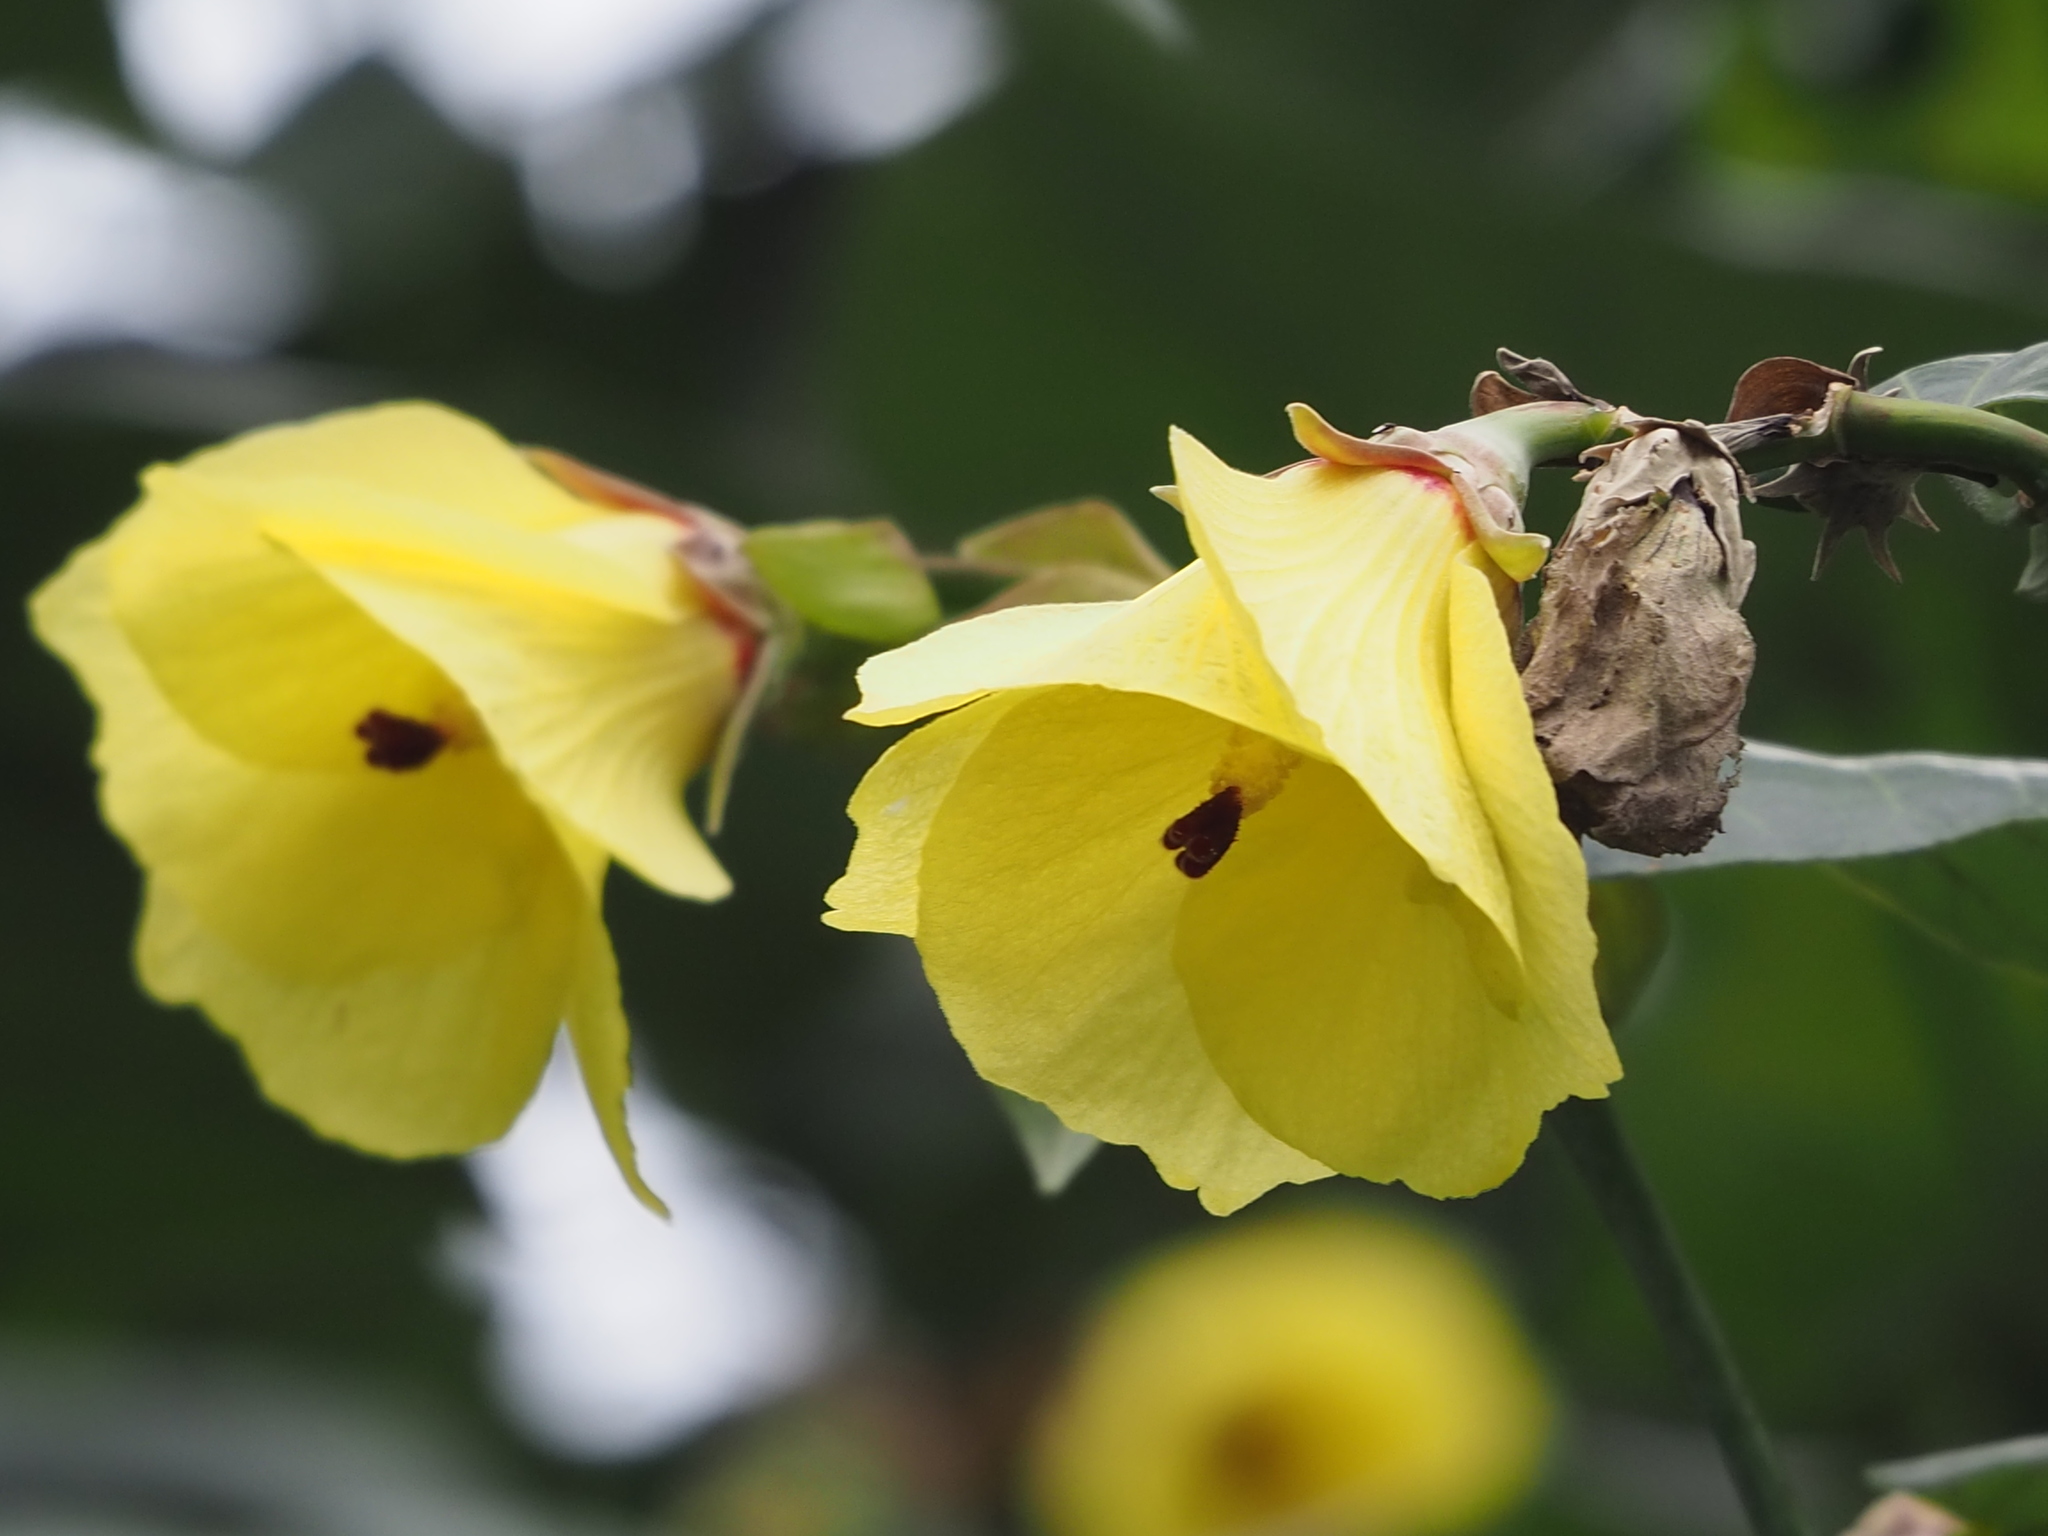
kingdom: Plantae
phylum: Tracheophyta
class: Magnoliopsida
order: Malvales
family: Malvaceae
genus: Talipariti
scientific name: Talipariti tiliaceum
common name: Sea hibiscus
